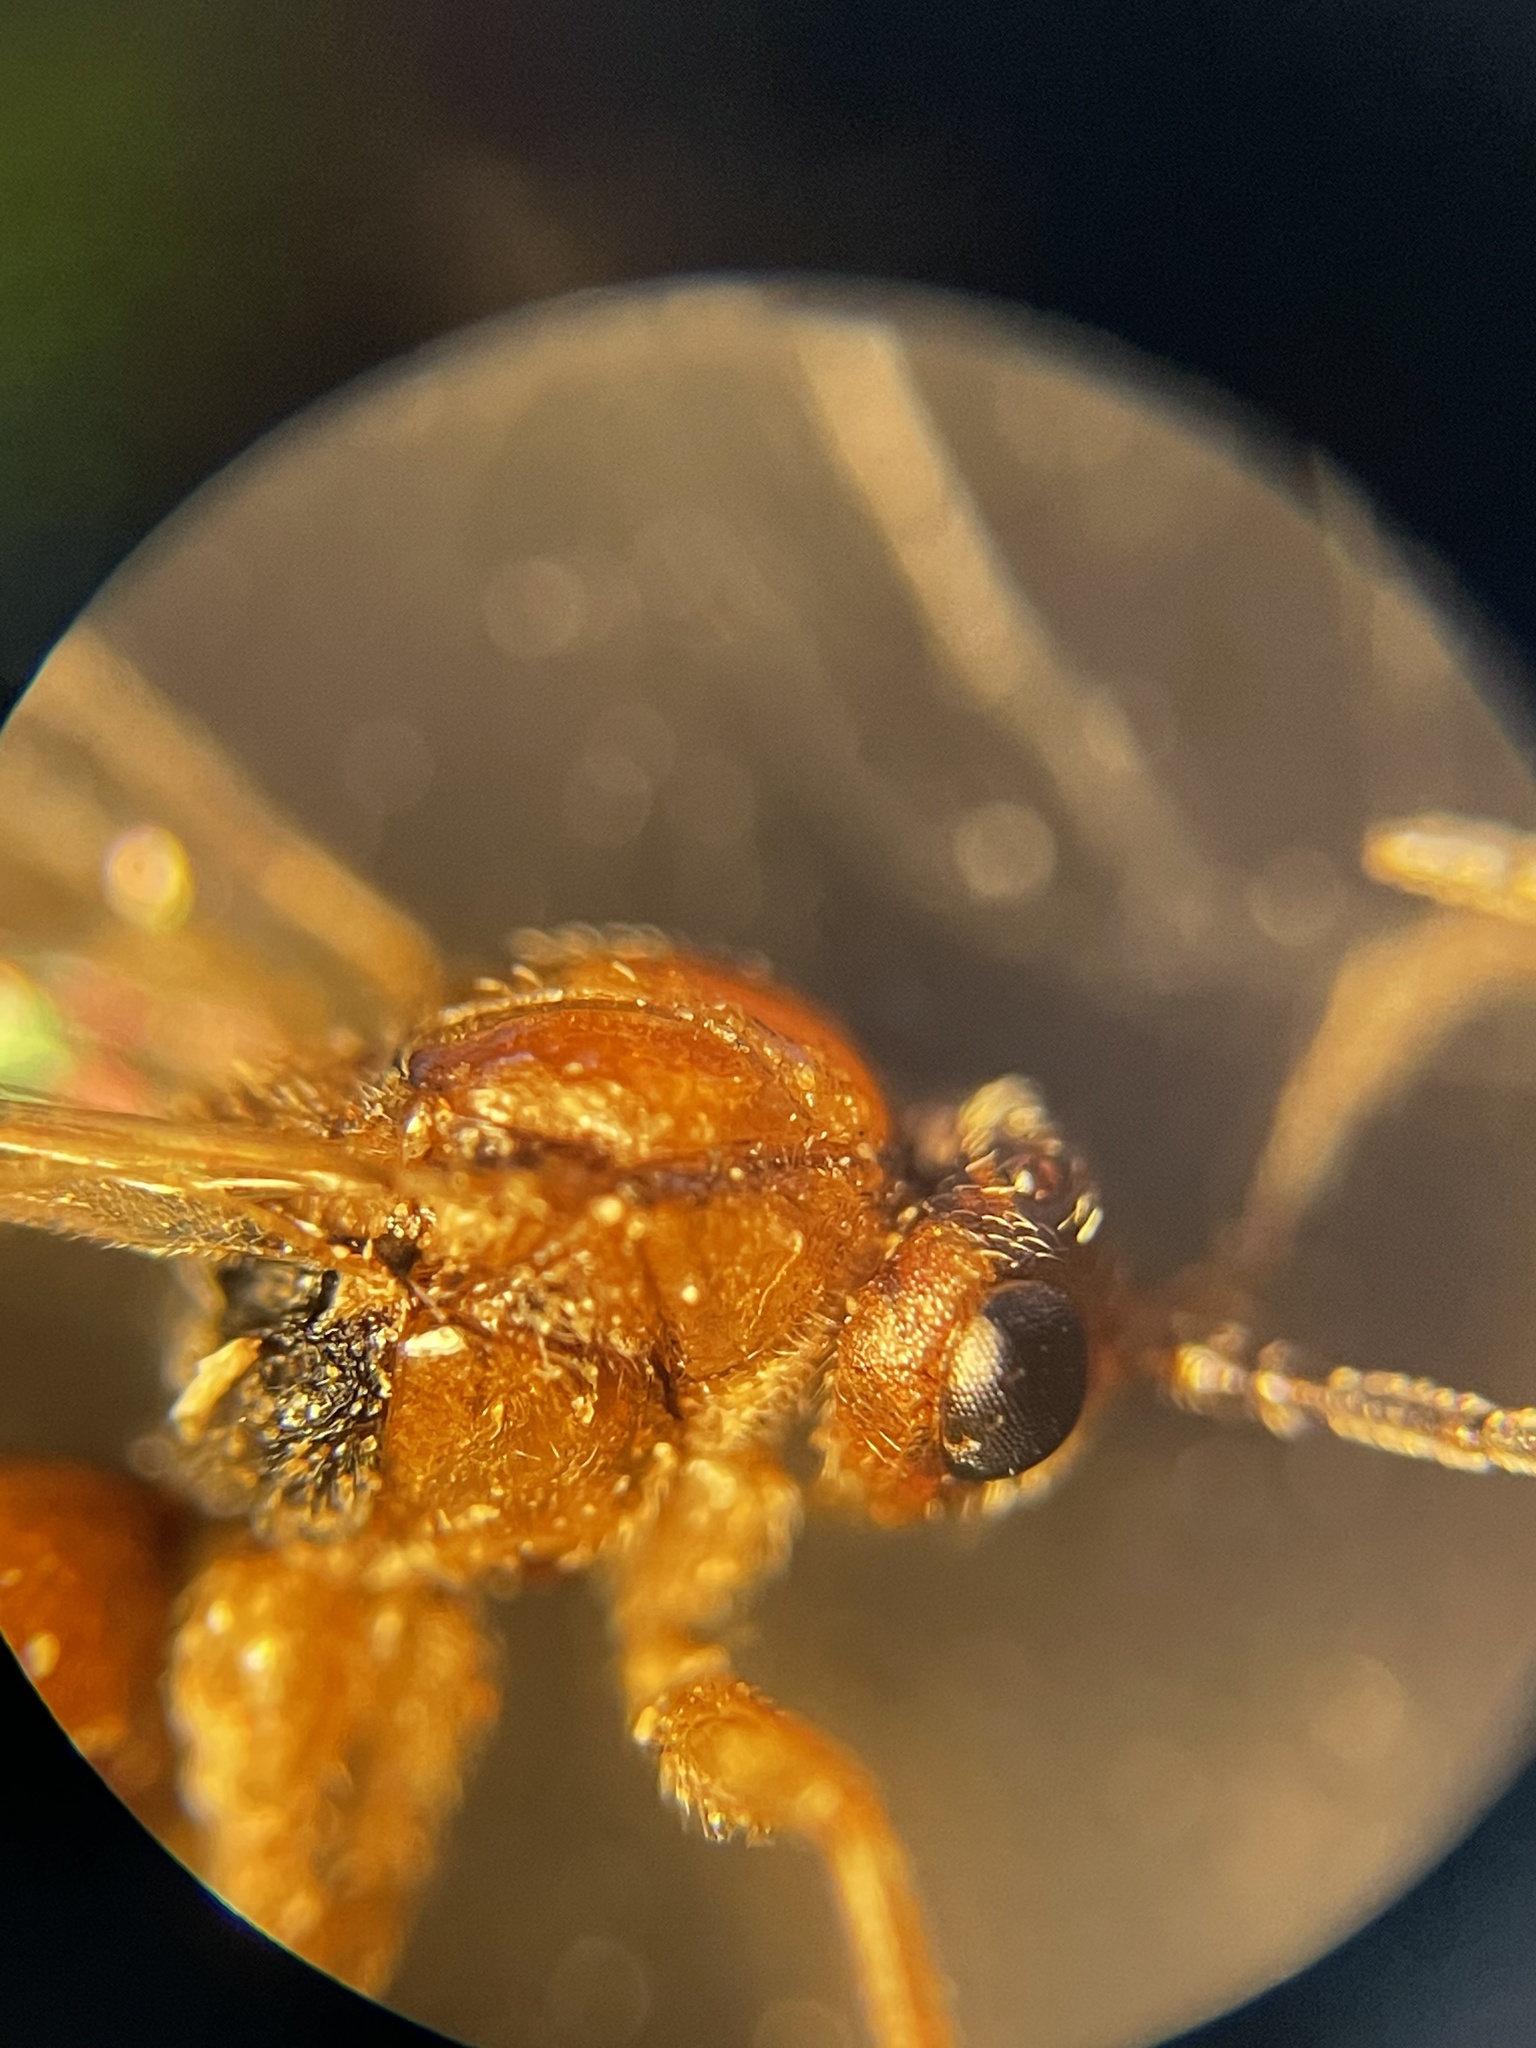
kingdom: Animalia
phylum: Arthropoda
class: Insecta
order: Hymenoptera
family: Cynipidae
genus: Belonocnema
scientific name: Belonocnema kinseyi
